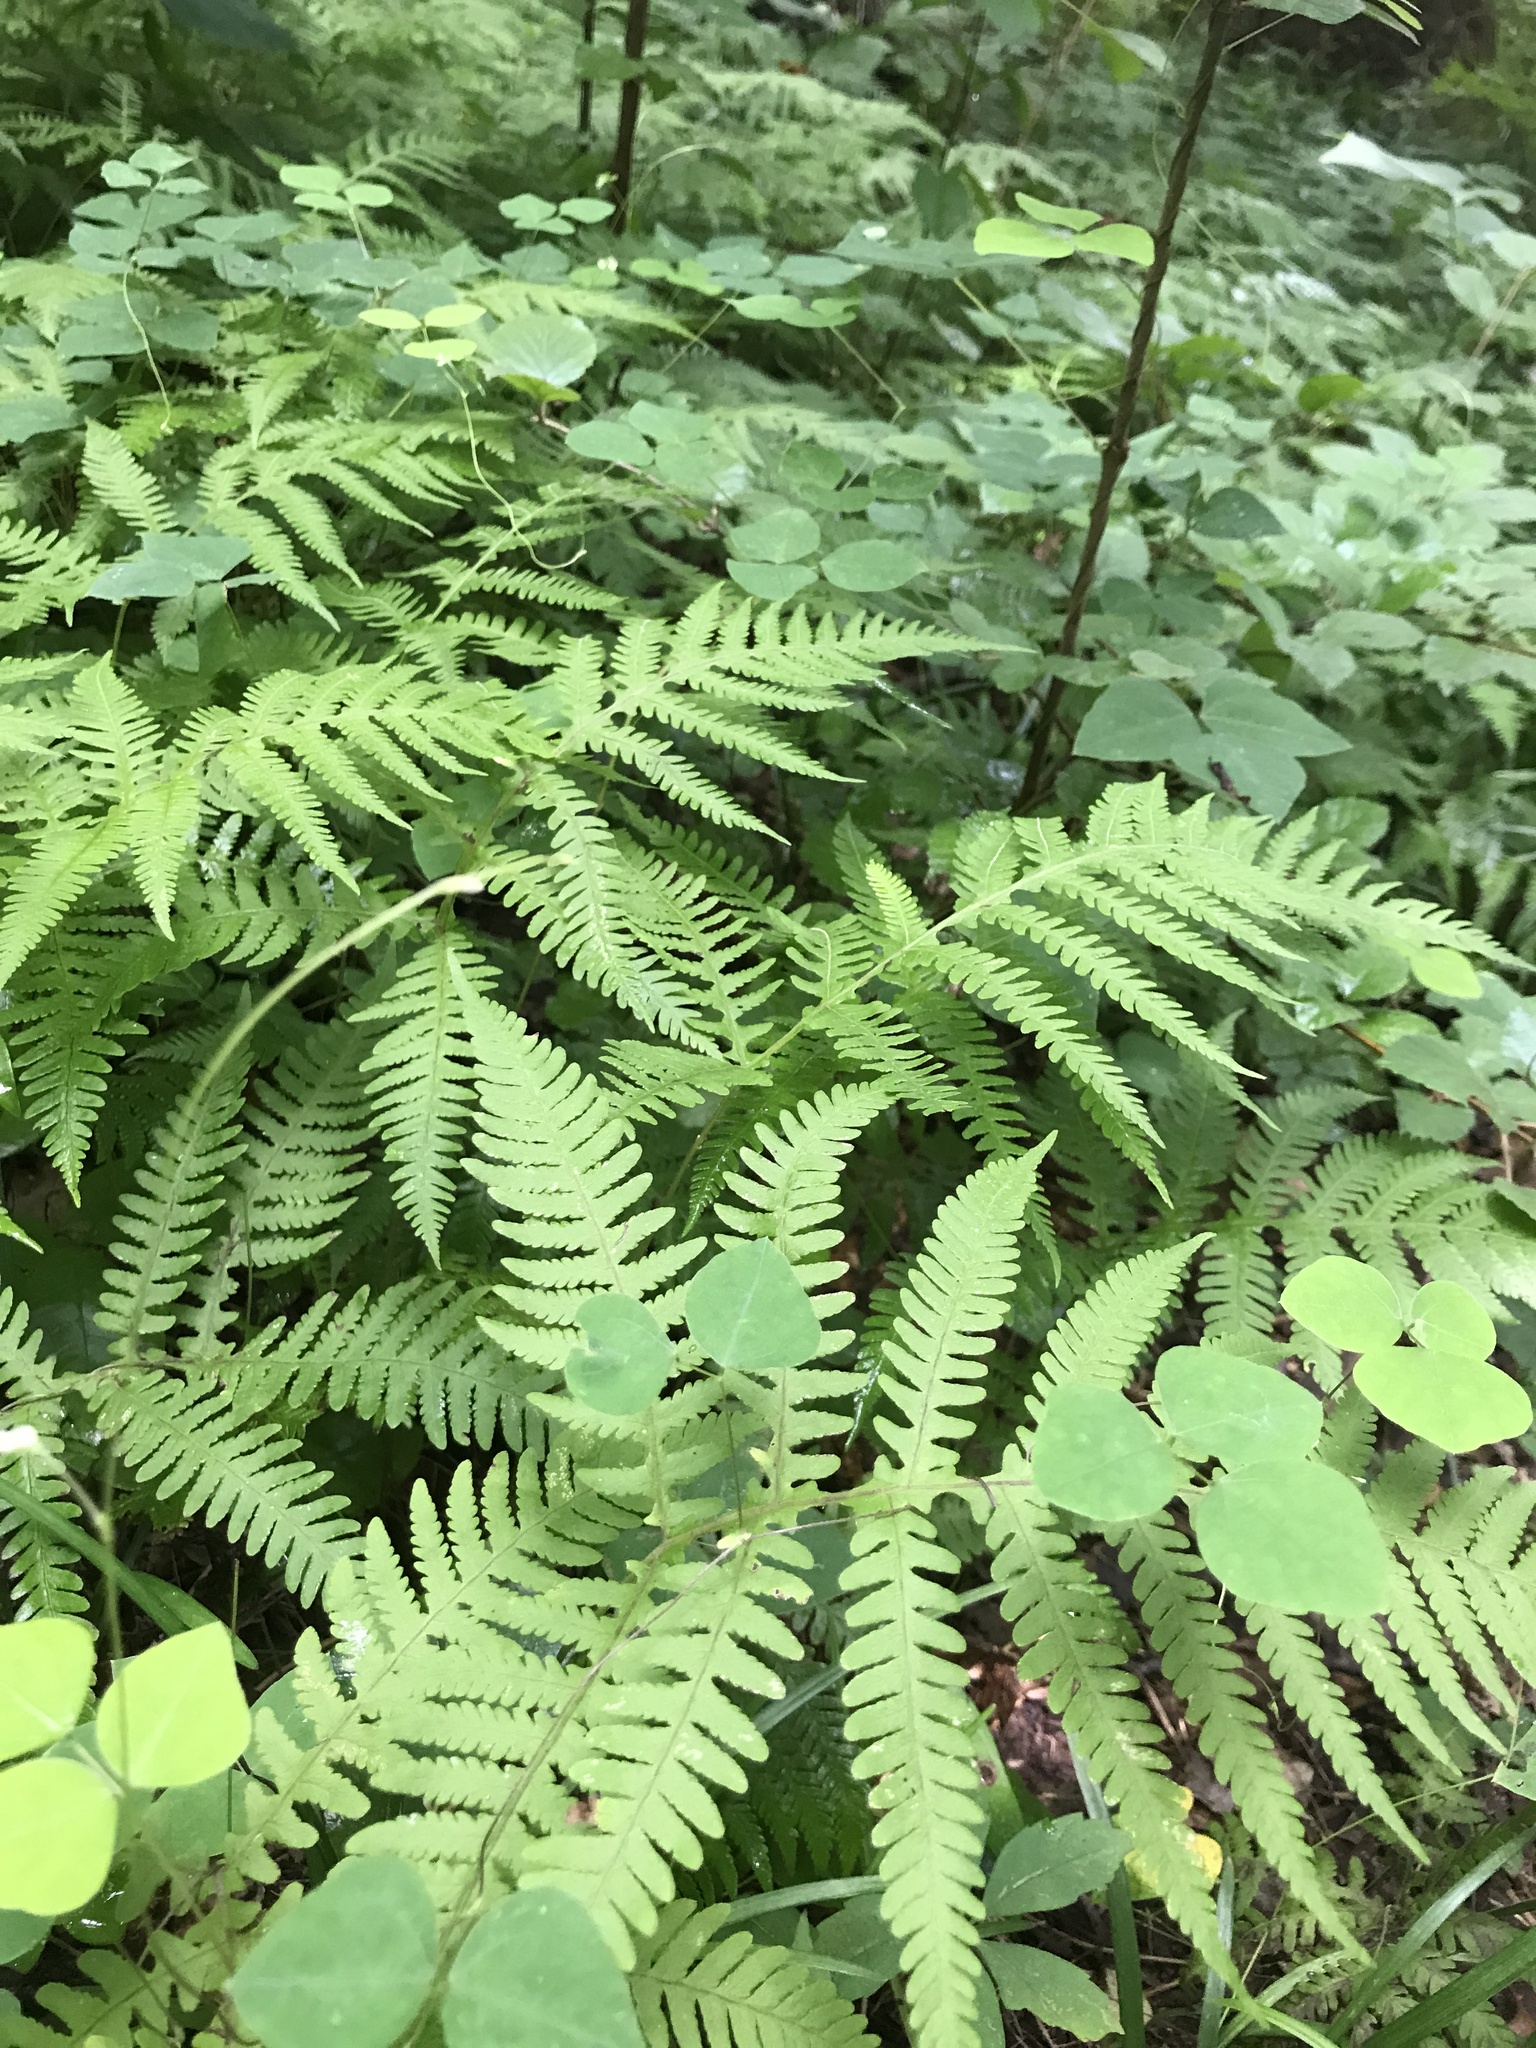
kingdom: Plantae
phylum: Tracheophyta
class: Polypodiopsida
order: Polypodiales
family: Thelypteridaceae
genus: Phegopteris
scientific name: Phegopteris hexagonoptera
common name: Broad beech fern
